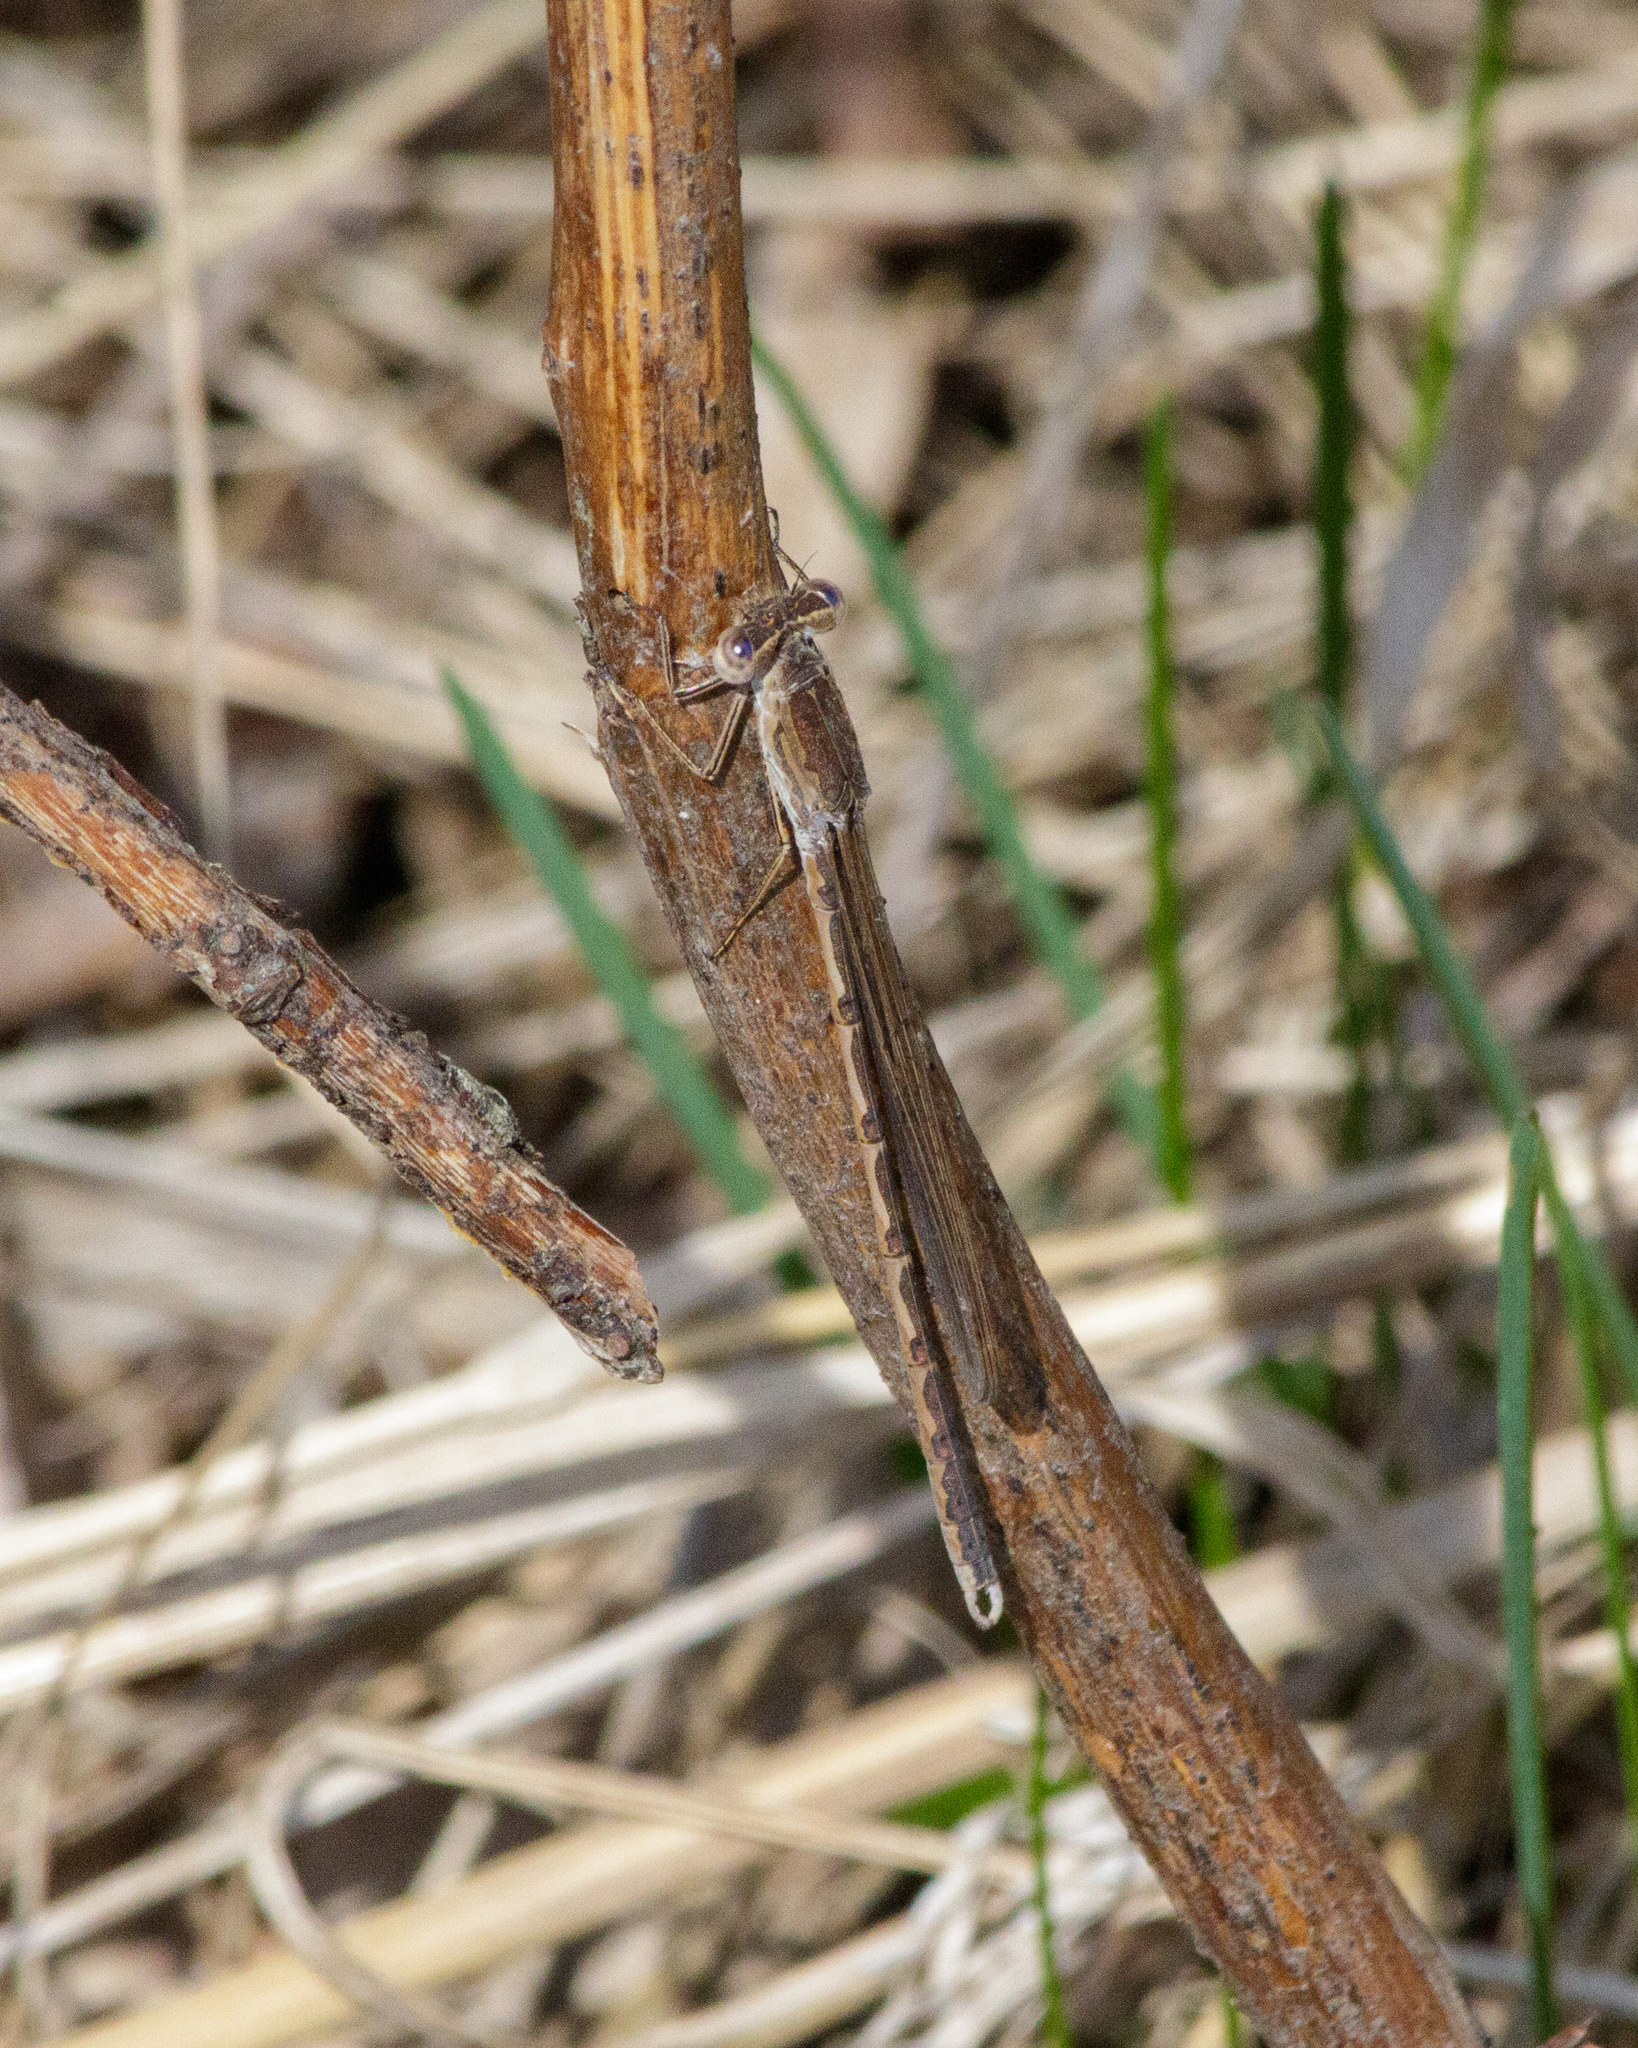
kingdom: Animalia
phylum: Arthropoda
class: Insecta
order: Odonata
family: Lestidae
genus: Sympecma
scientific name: Sympecma paedisca
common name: Siberian winter damsel
